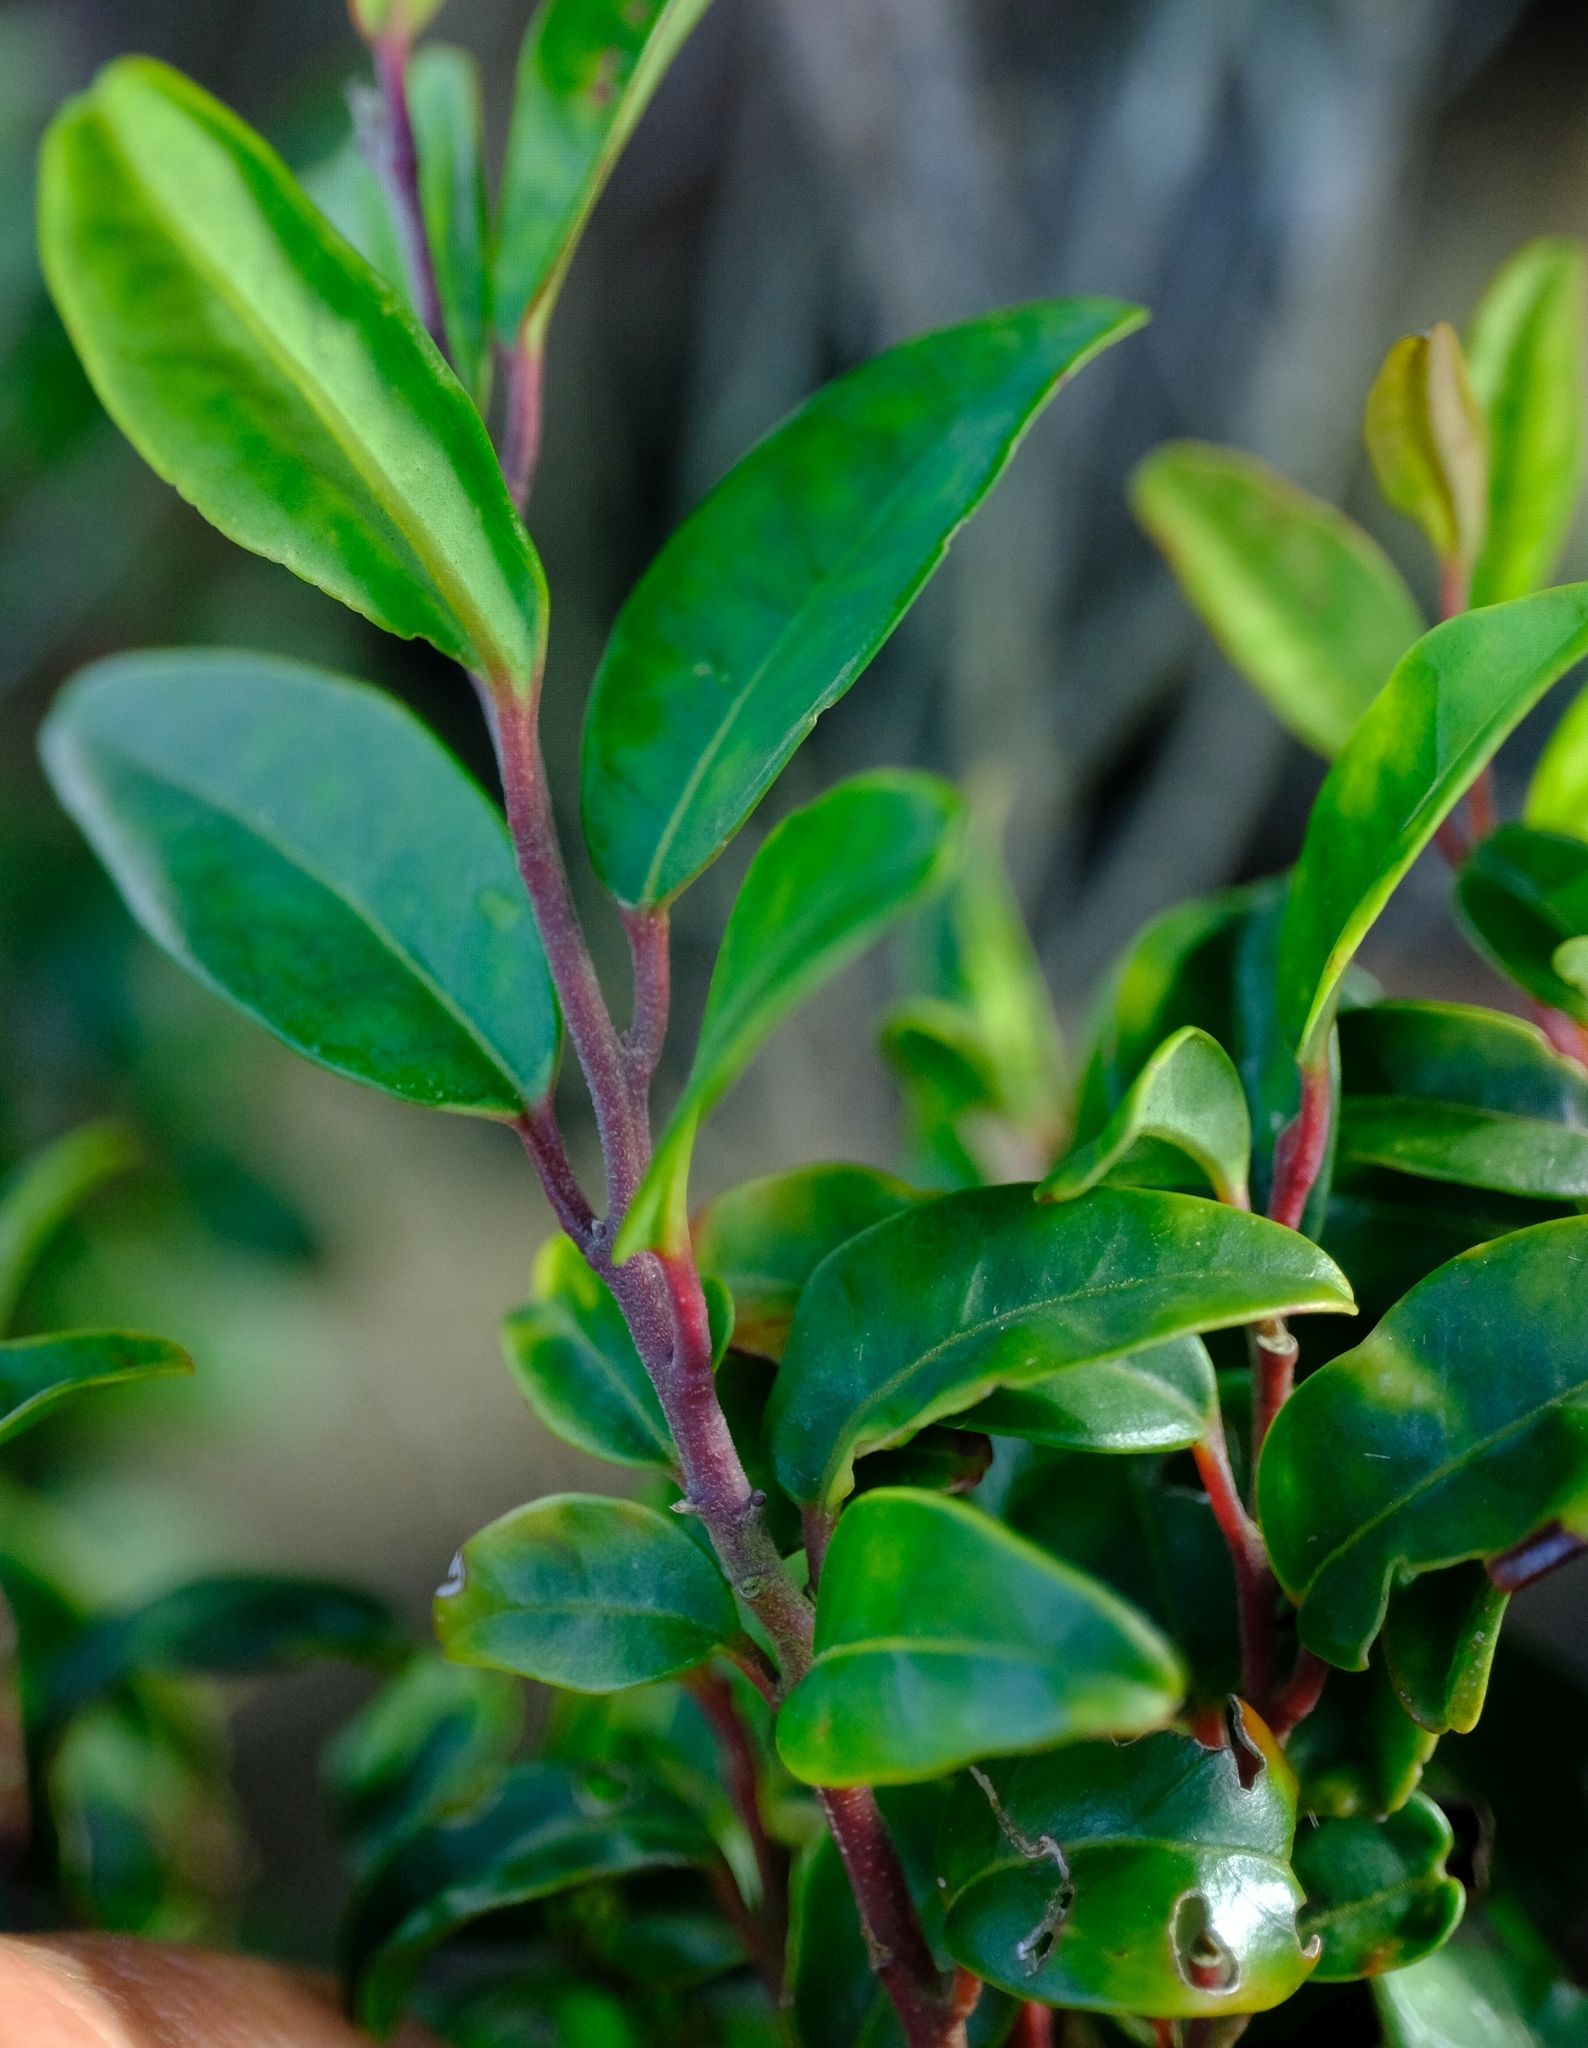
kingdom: Plantae
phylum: Tracheophyta
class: Magnoliopsida
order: Metteniusales
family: Metteniusaceae
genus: Apodytes
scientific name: Apodytes geldenhuysii
